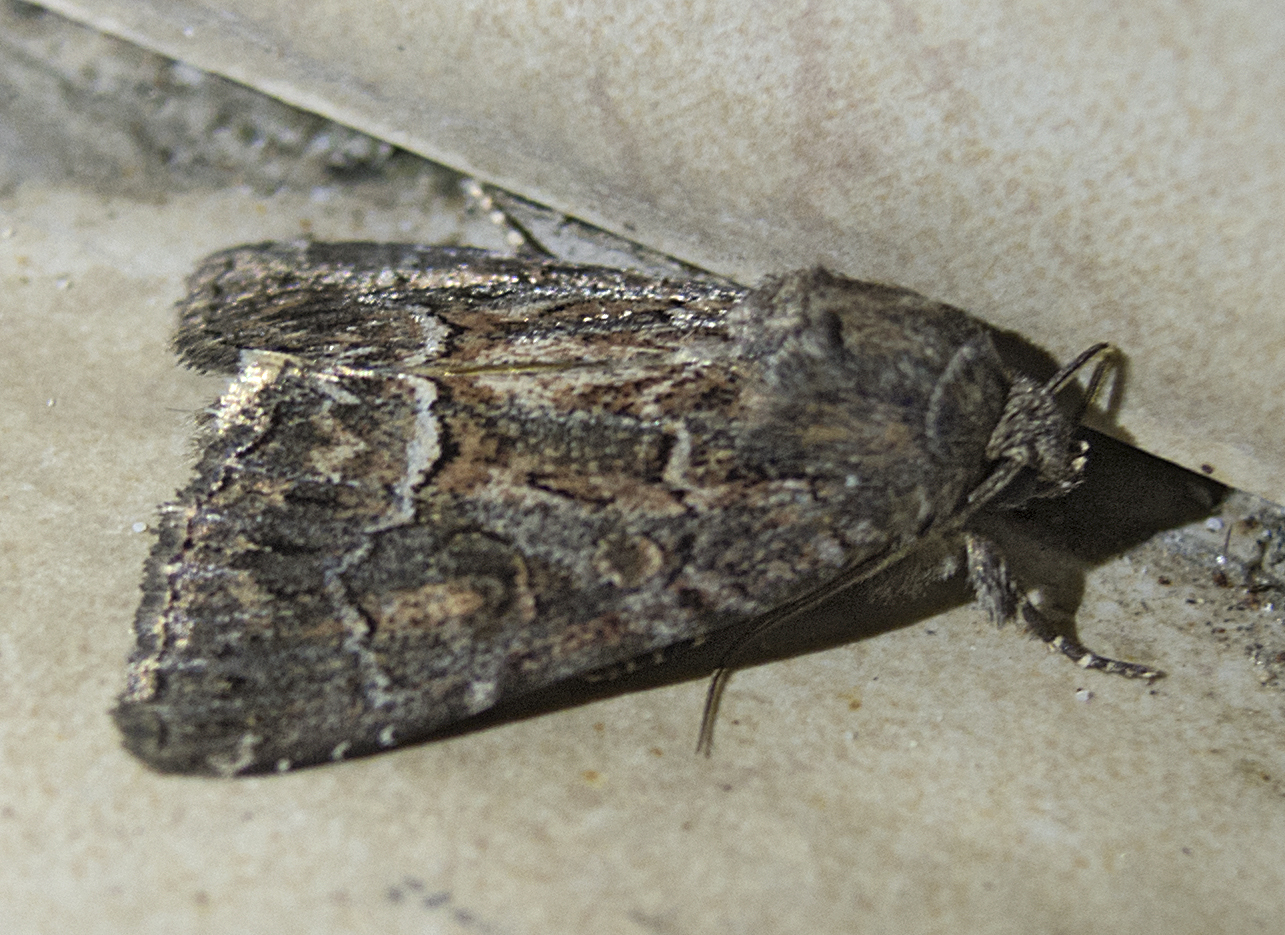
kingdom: Animalia
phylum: Arthropoda
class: Insecta
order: Lepidoptera
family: Noctuidae
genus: Thalpophila
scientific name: Thalpophila matura
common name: Straw underwing
